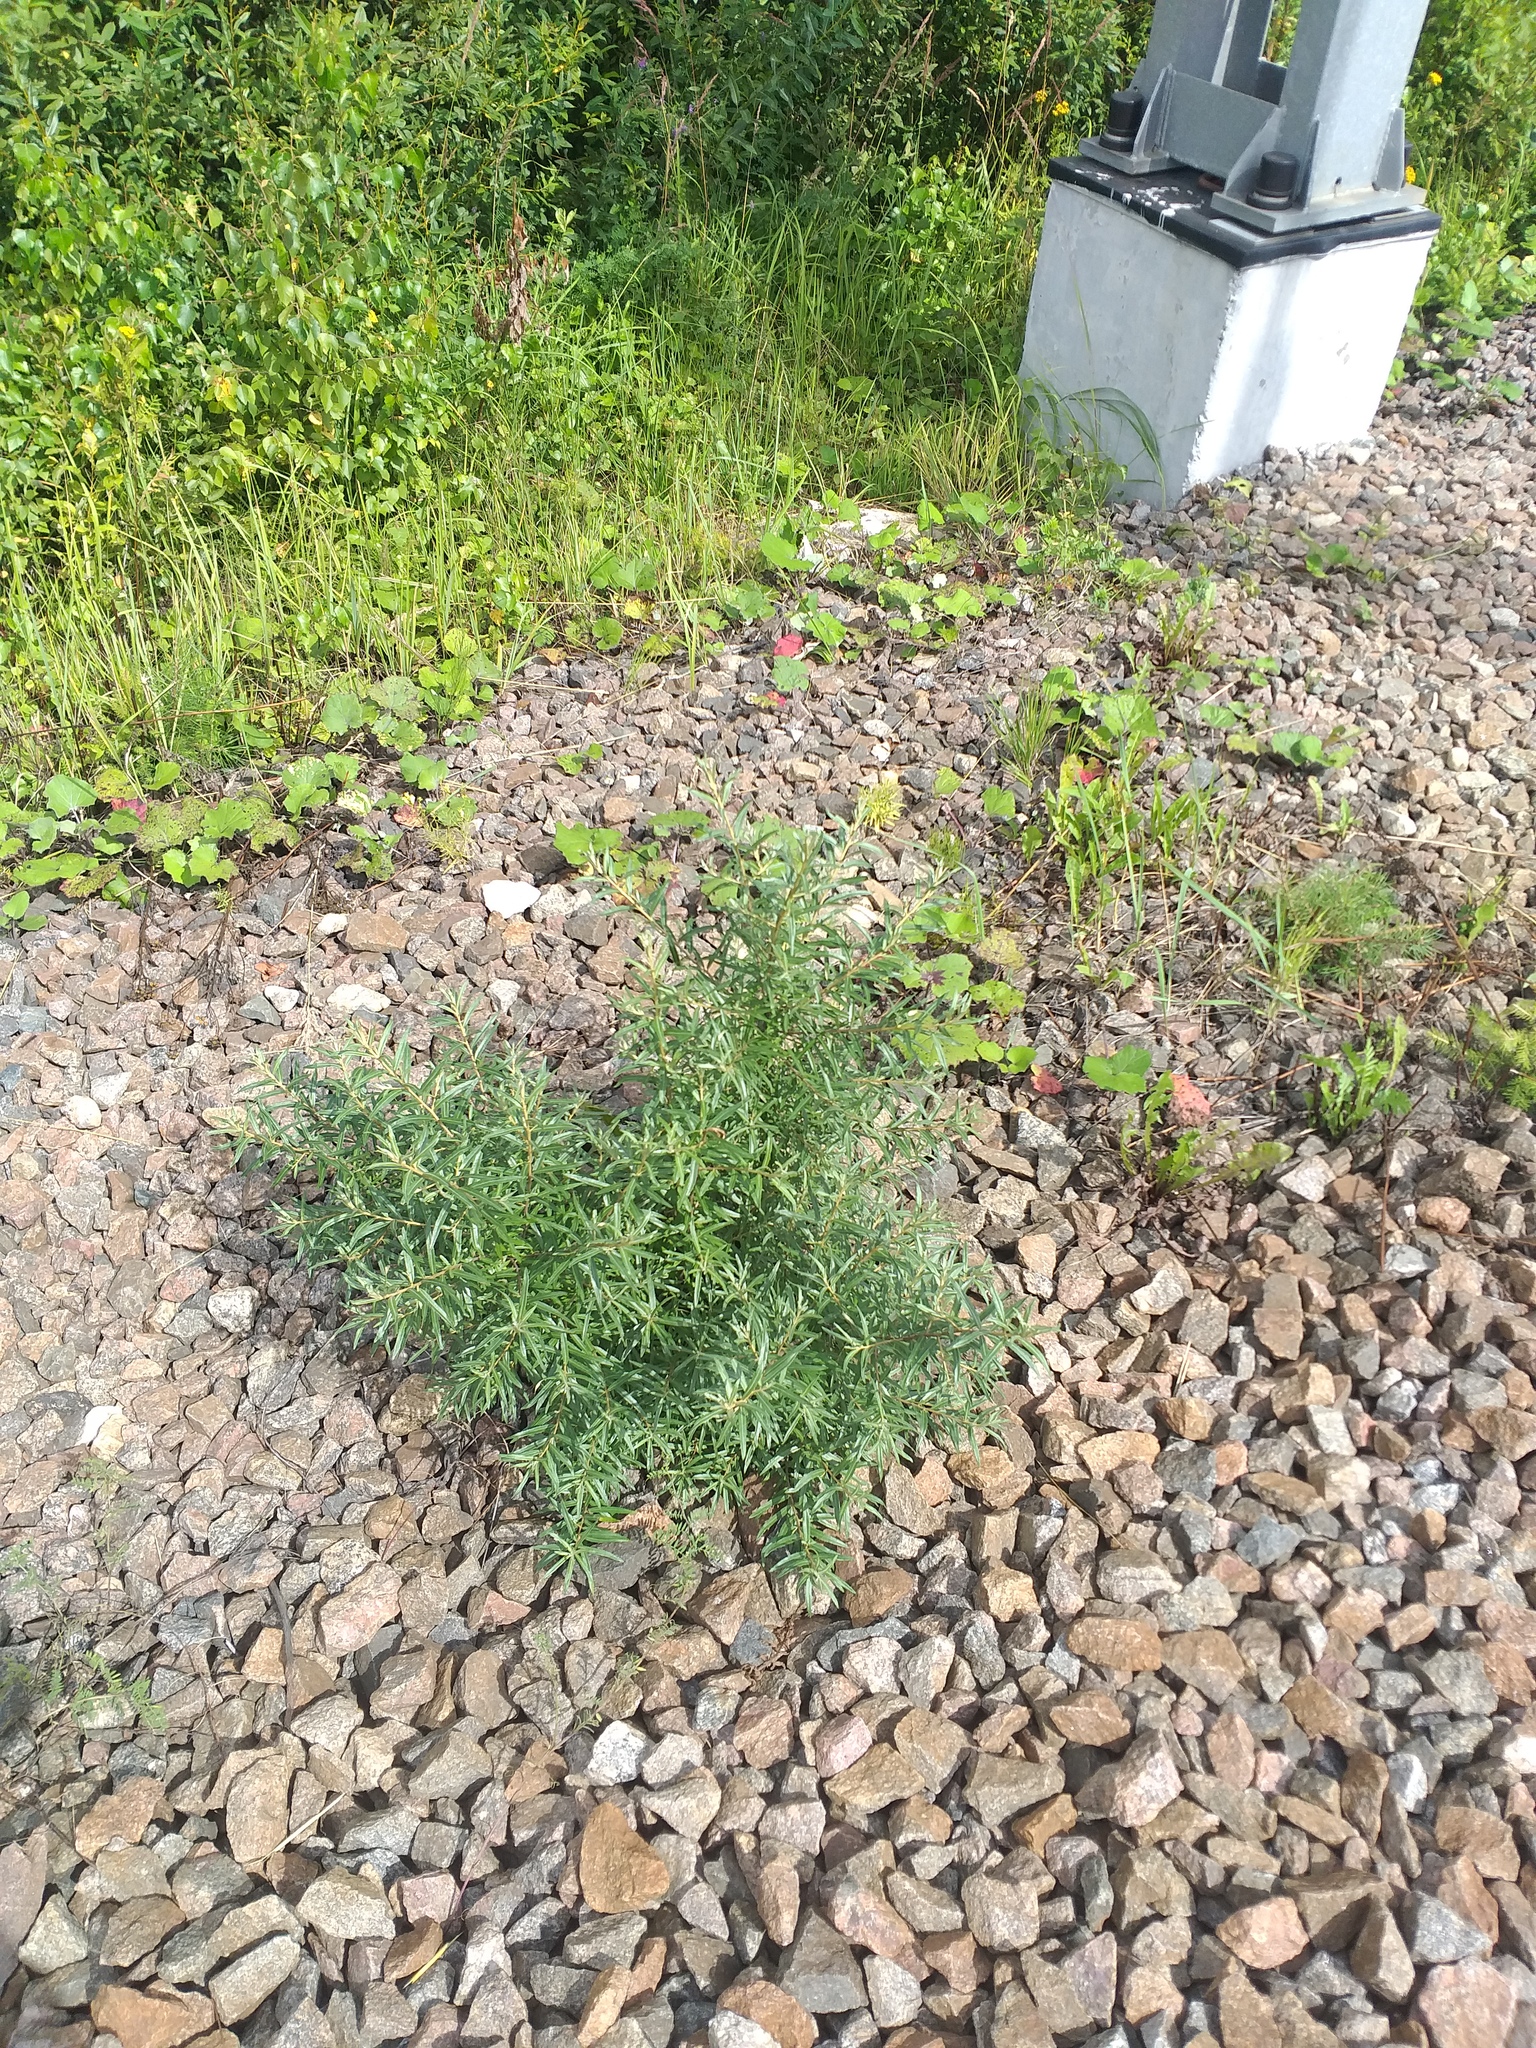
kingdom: Plantae
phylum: Tracheophyta
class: Magnoliopsida
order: Rosales
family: Elaeagnaceae
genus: Hippophae
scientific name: Hippophae rhamnoides
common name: Sea-buckthorn
